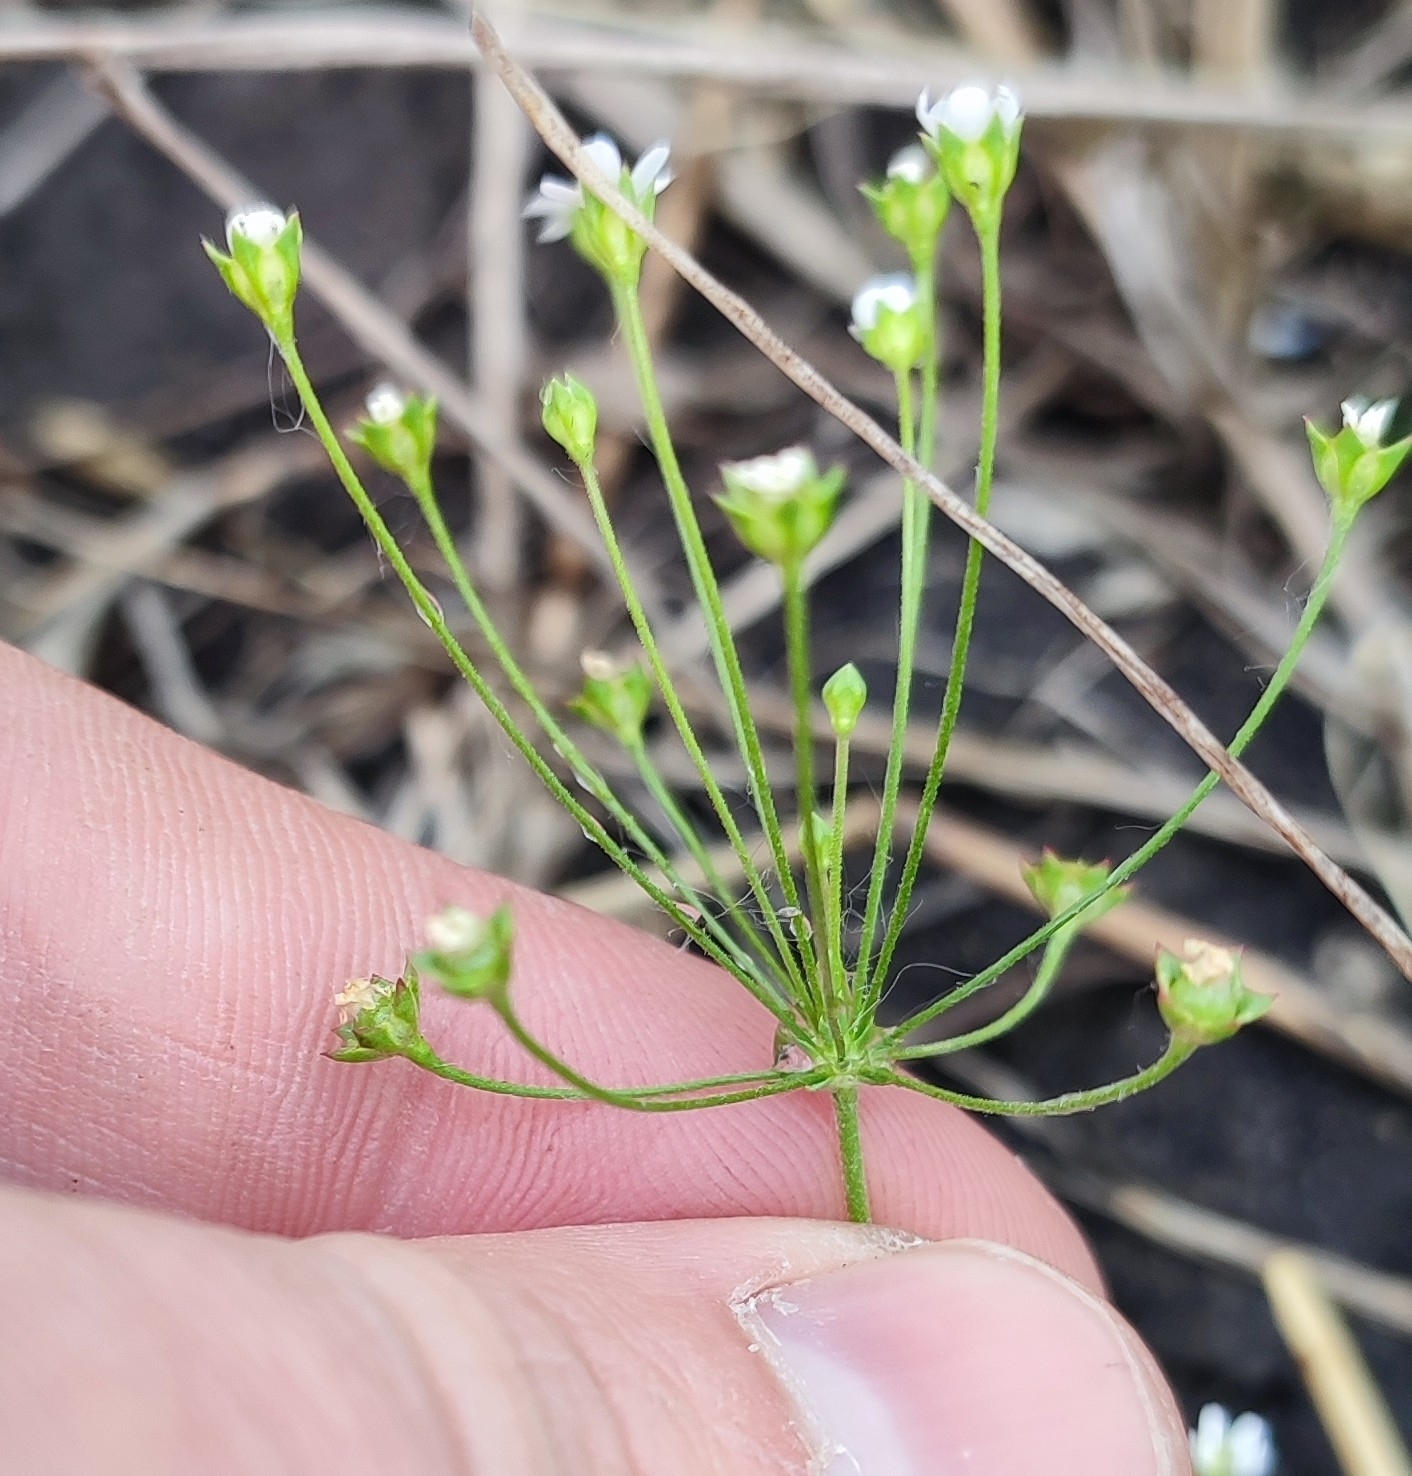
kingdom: Plantae
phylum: Tracheophyta
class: Magnoliopsida
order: Ericales
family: Primulaceae
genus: Androsace
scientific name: Androsace septentrionalis
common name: Hairy northern fairy-candelabra
